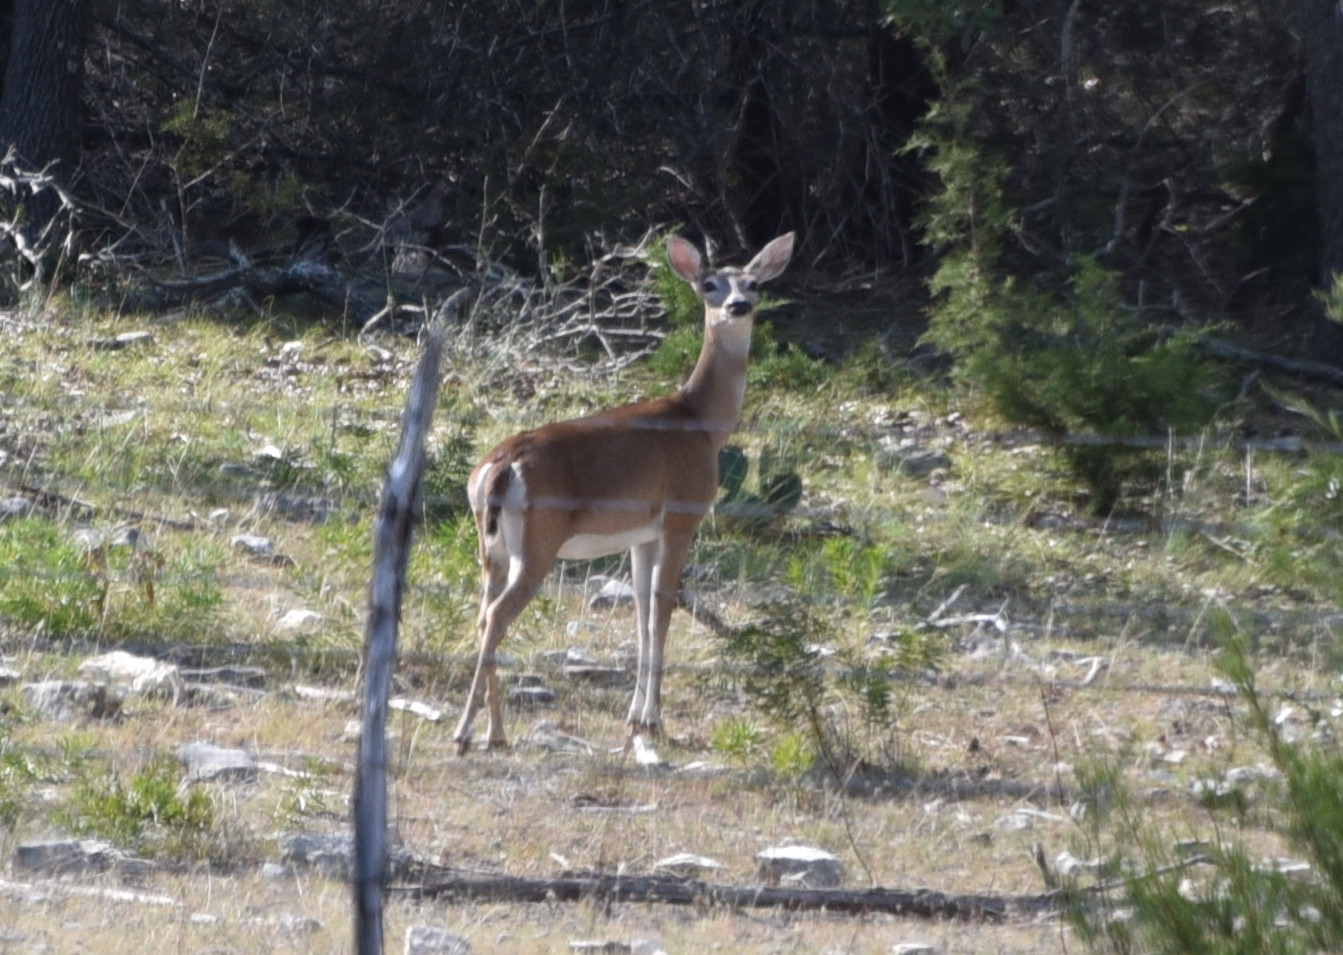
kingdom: Animalia
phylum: Chordata
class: Mammalia
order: Artiodactyla
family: Cervidae
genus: Odocoileus
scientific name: Odocoileus virginianus
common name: White-tailed deer
